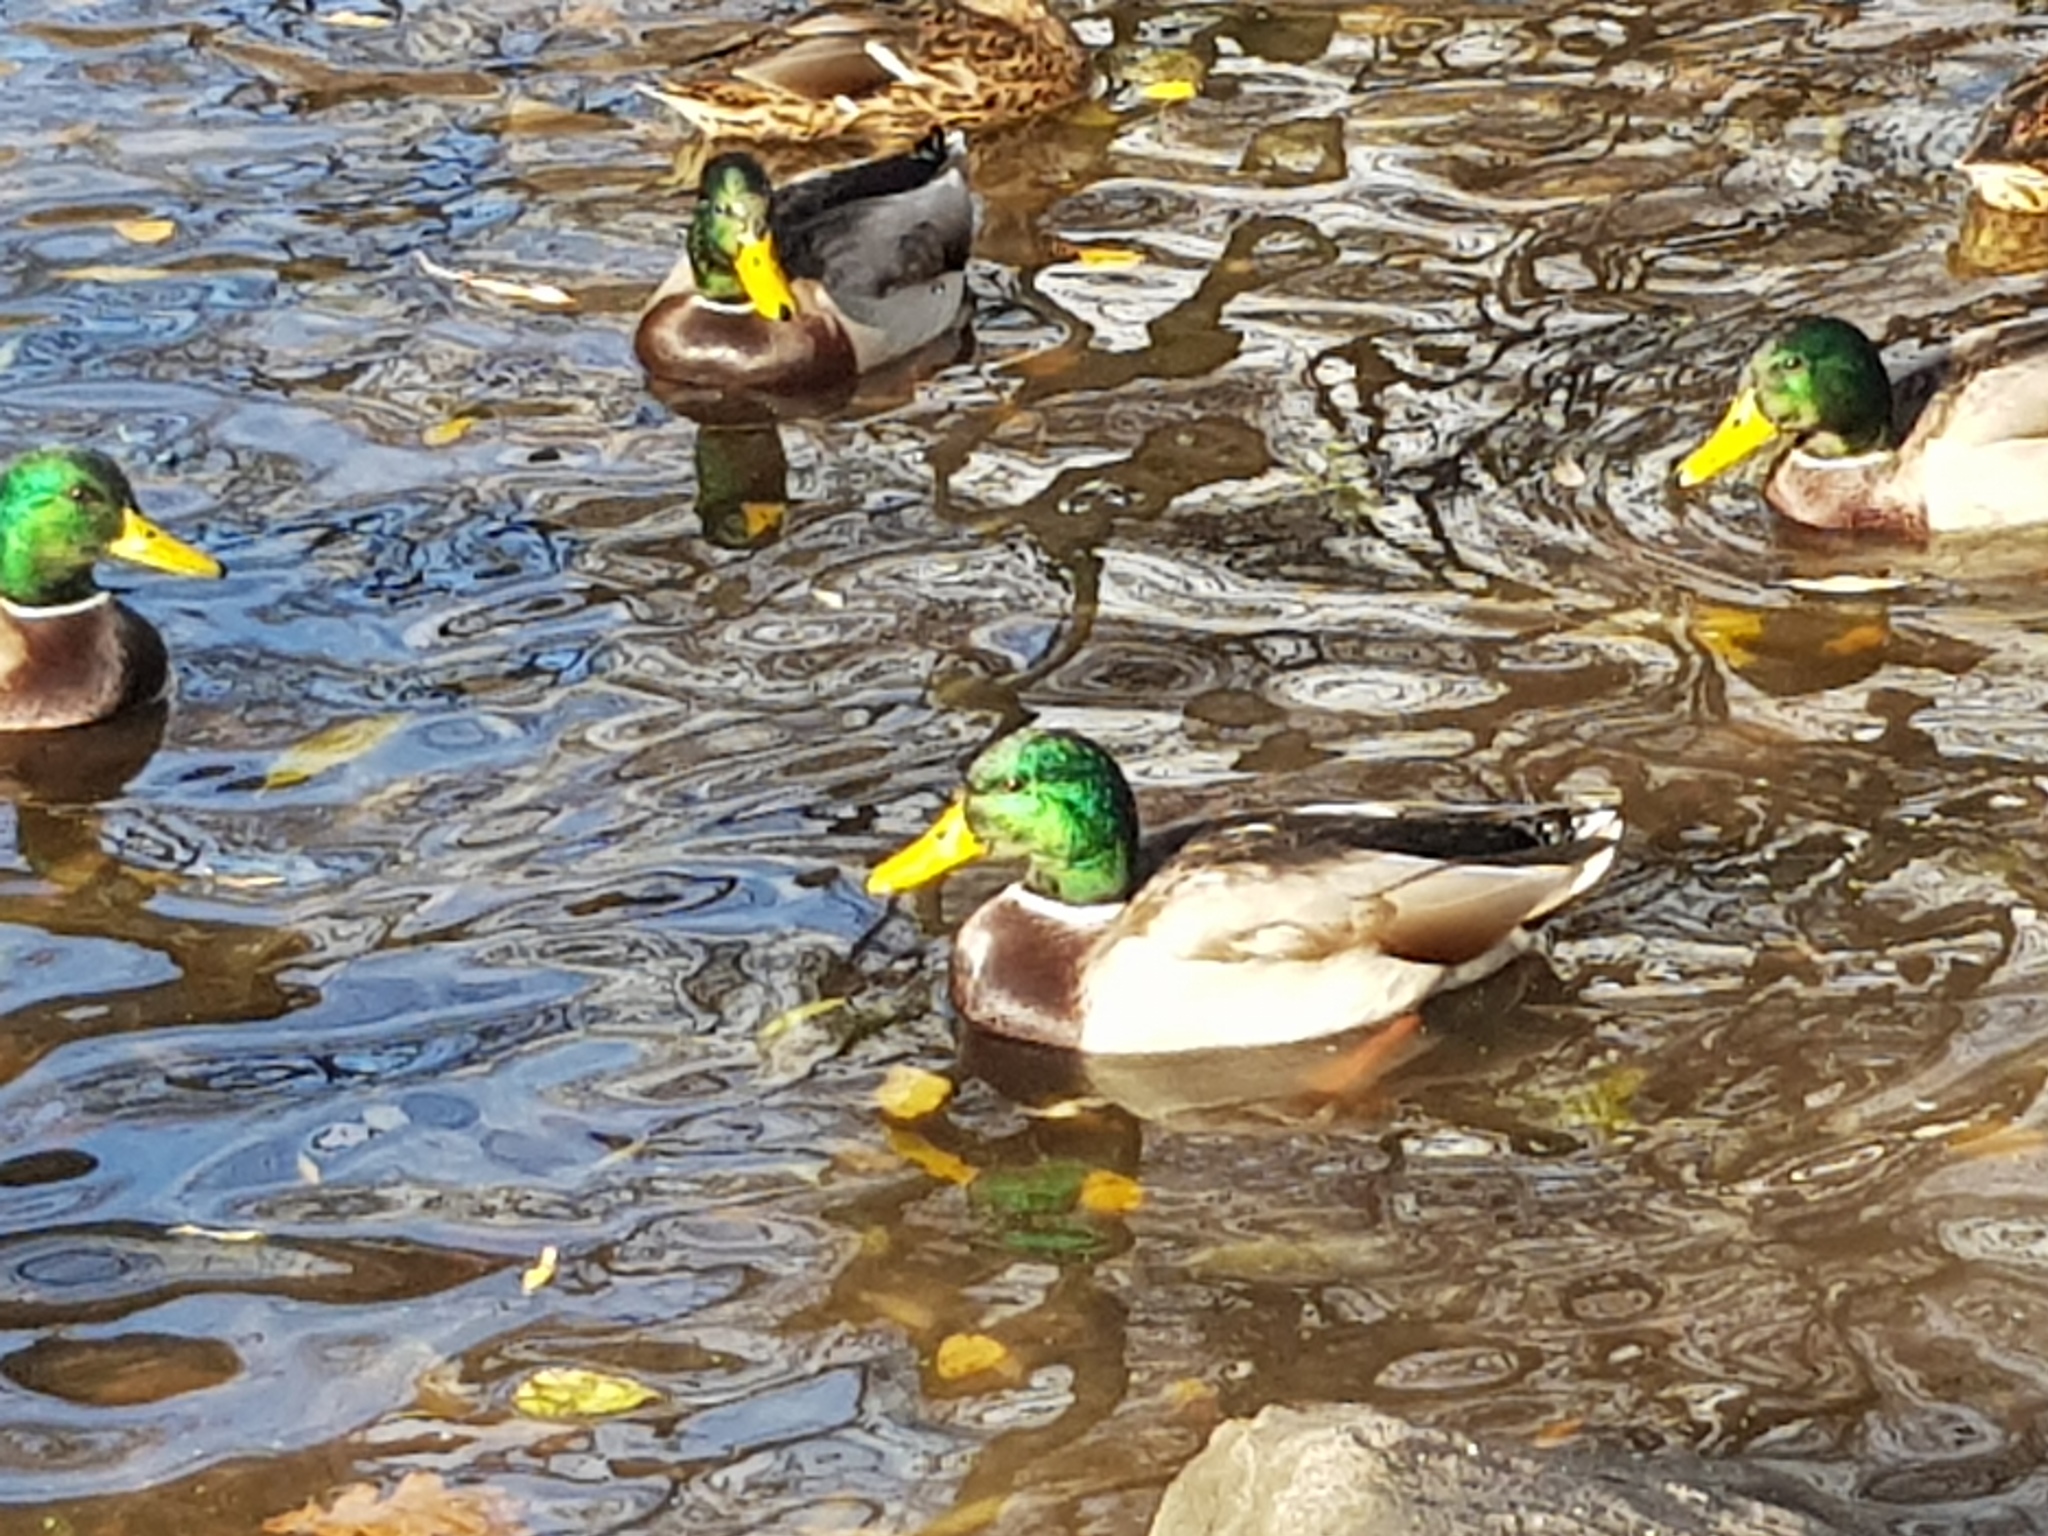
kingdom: Animalia
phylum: Chordata
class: Aves
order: Anseriformes
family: Anatidae
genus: Anas
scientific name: Anas platyrhynchos
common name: Mallard
